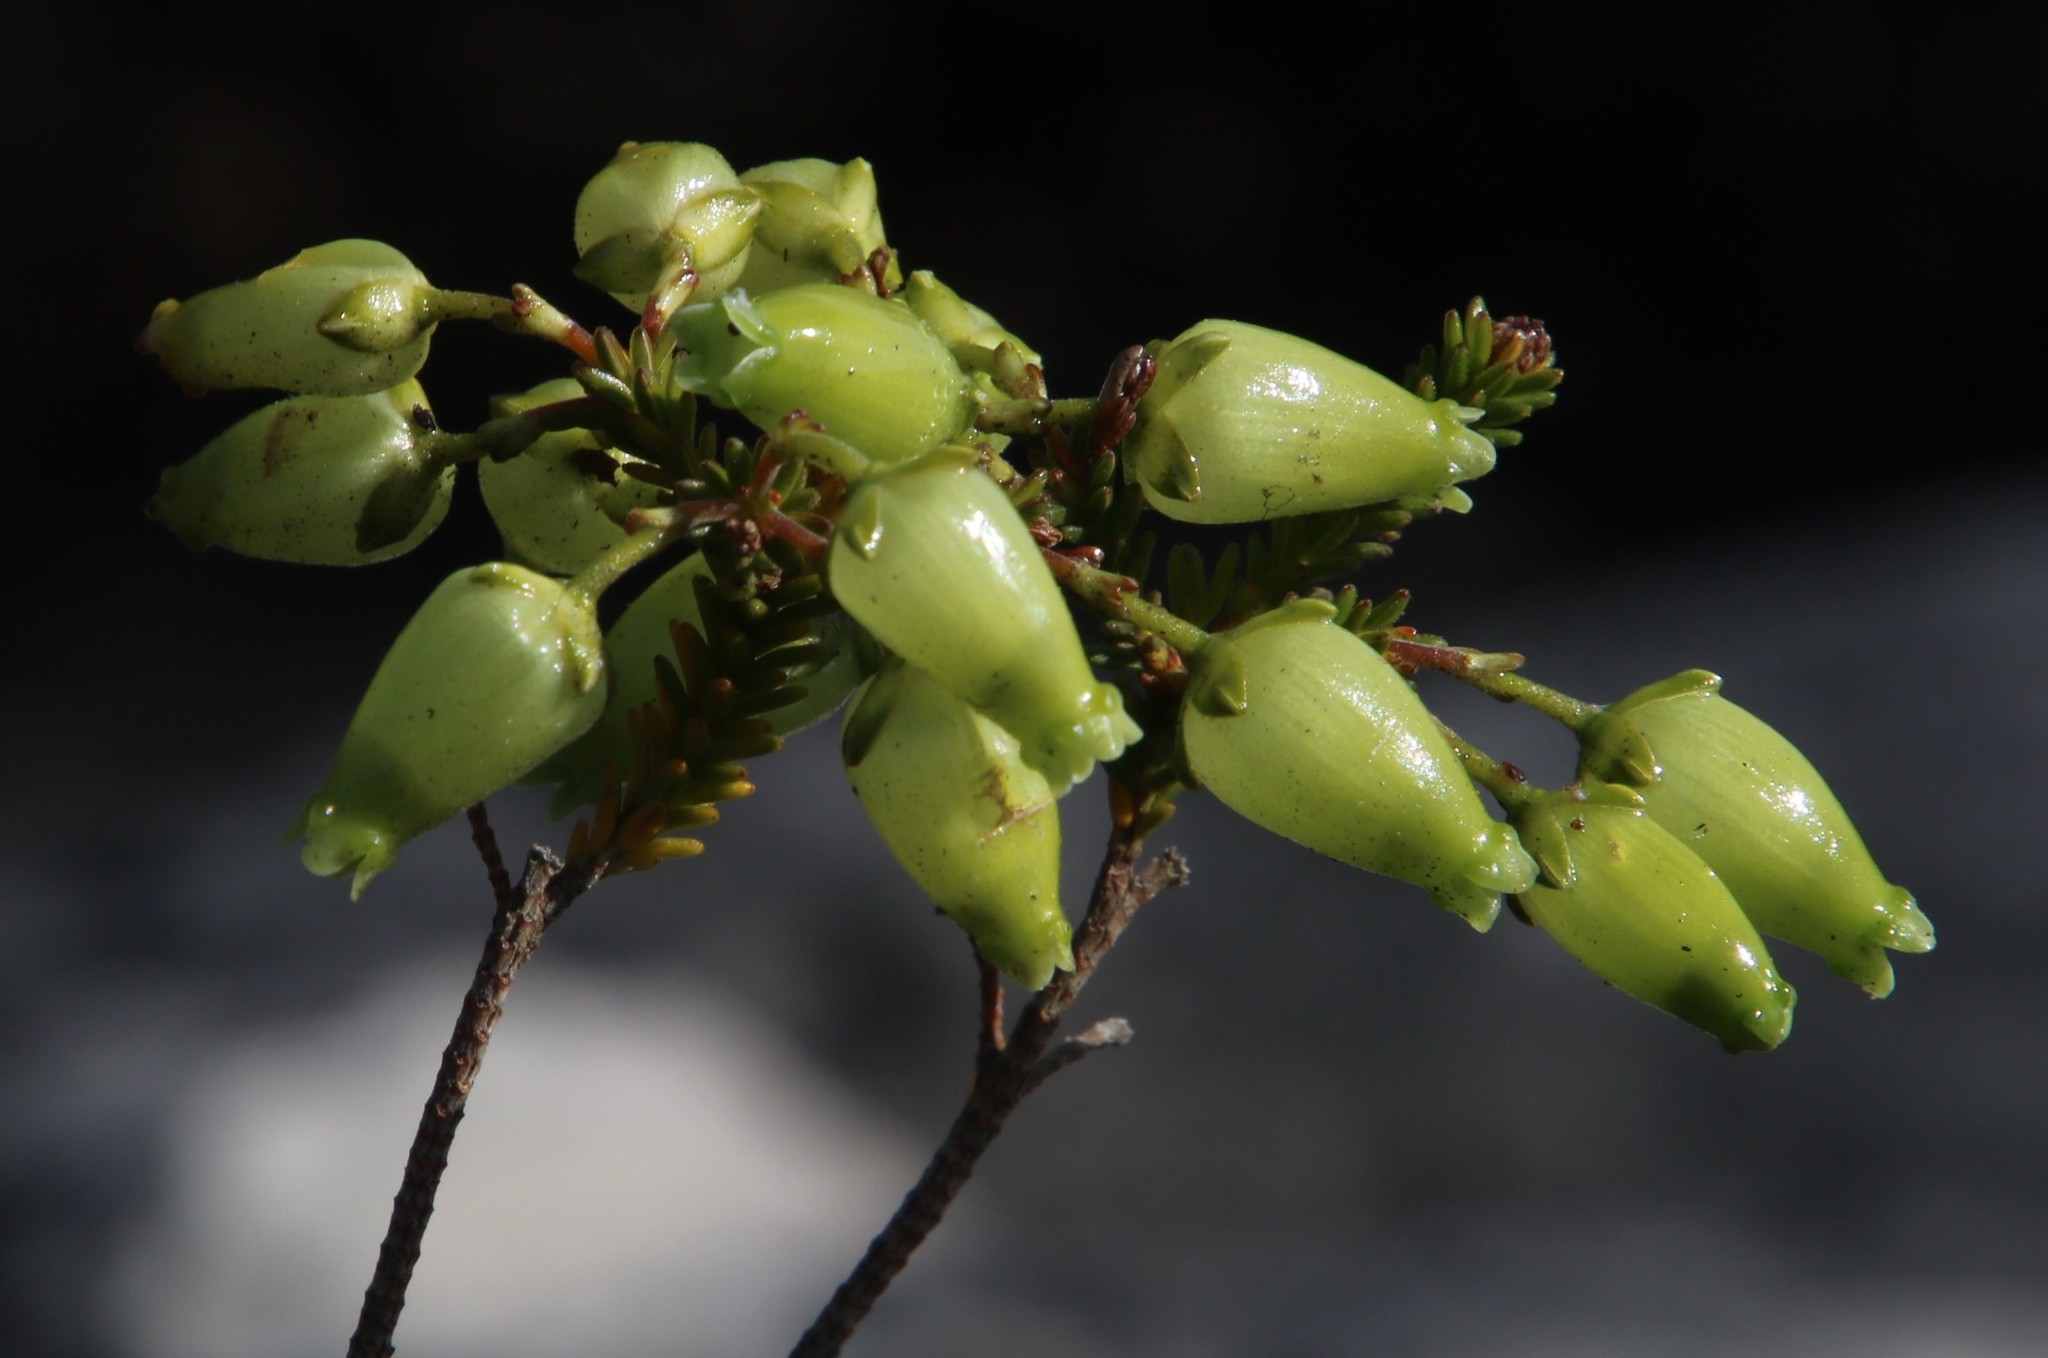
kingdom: Plantae
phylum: Tracheophyta
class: Magnoliopsida
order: Ericales
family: Ericaceae
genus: Erica
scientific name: Erica urna-viridis
